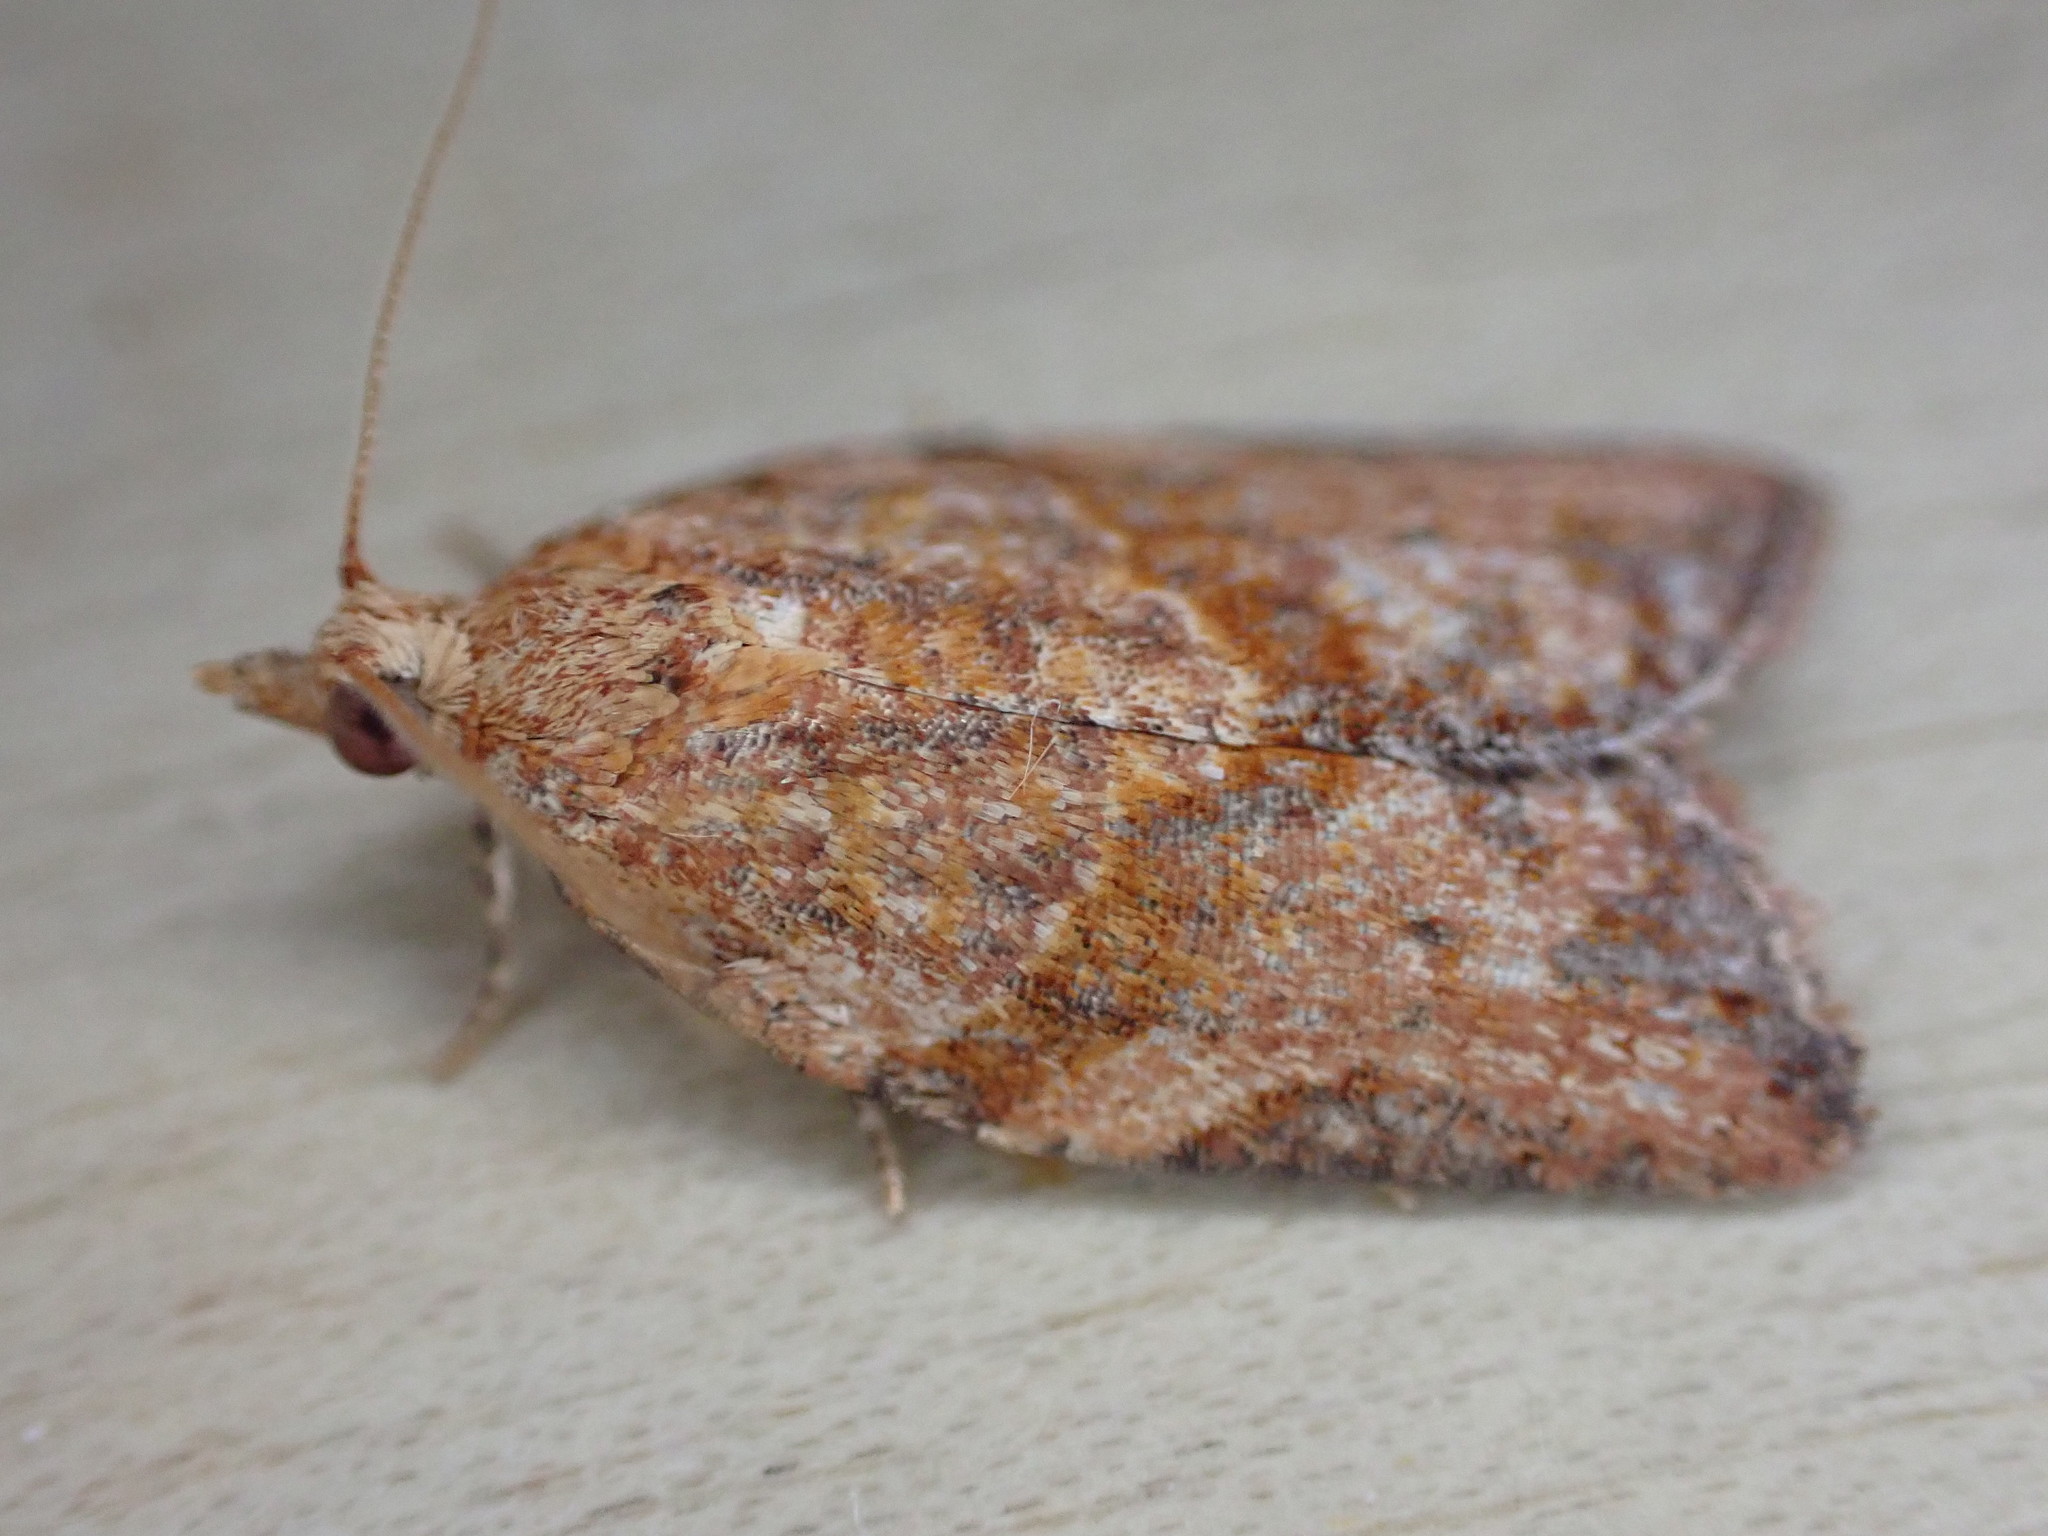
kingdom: Animalia
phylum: Arthropoda
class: Insecta
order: Lepidoptera
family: Tortricidae
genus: Epiphyas
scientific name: Epiphyas postvittana
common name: Light brown apple moth
